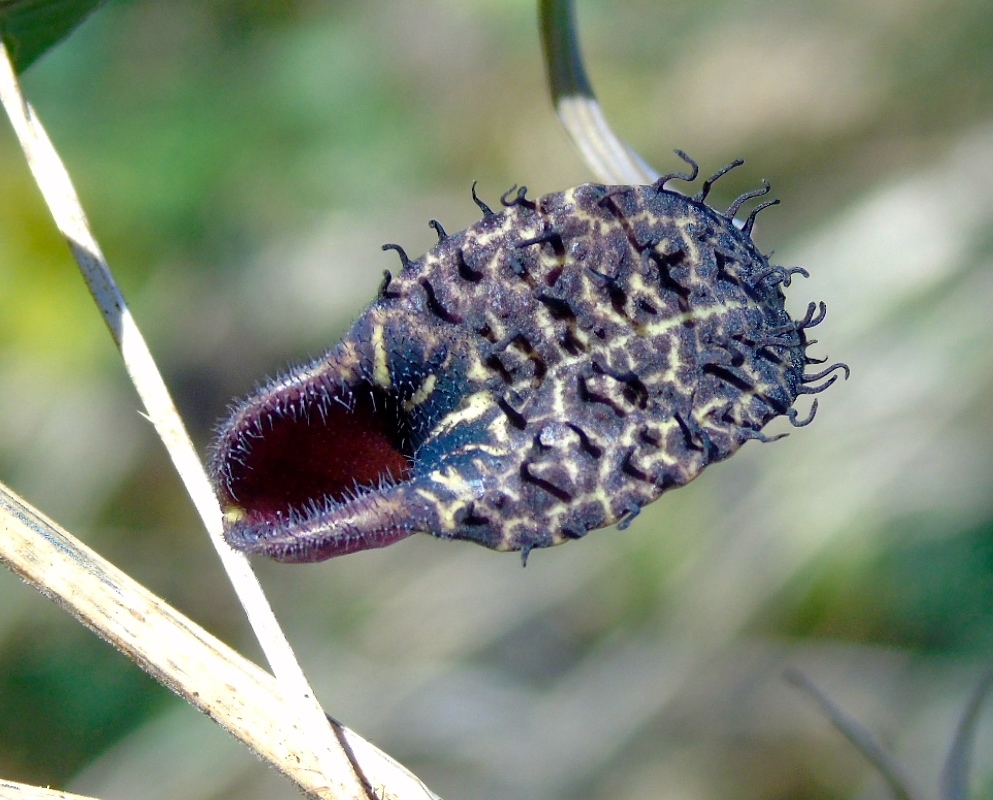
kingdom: Plantae
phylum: Tracheophyta
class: Magnoliopsida
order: Piperales
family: Aristolochiaceae
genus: Aristolochia
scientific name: Aristolochia taliscana
